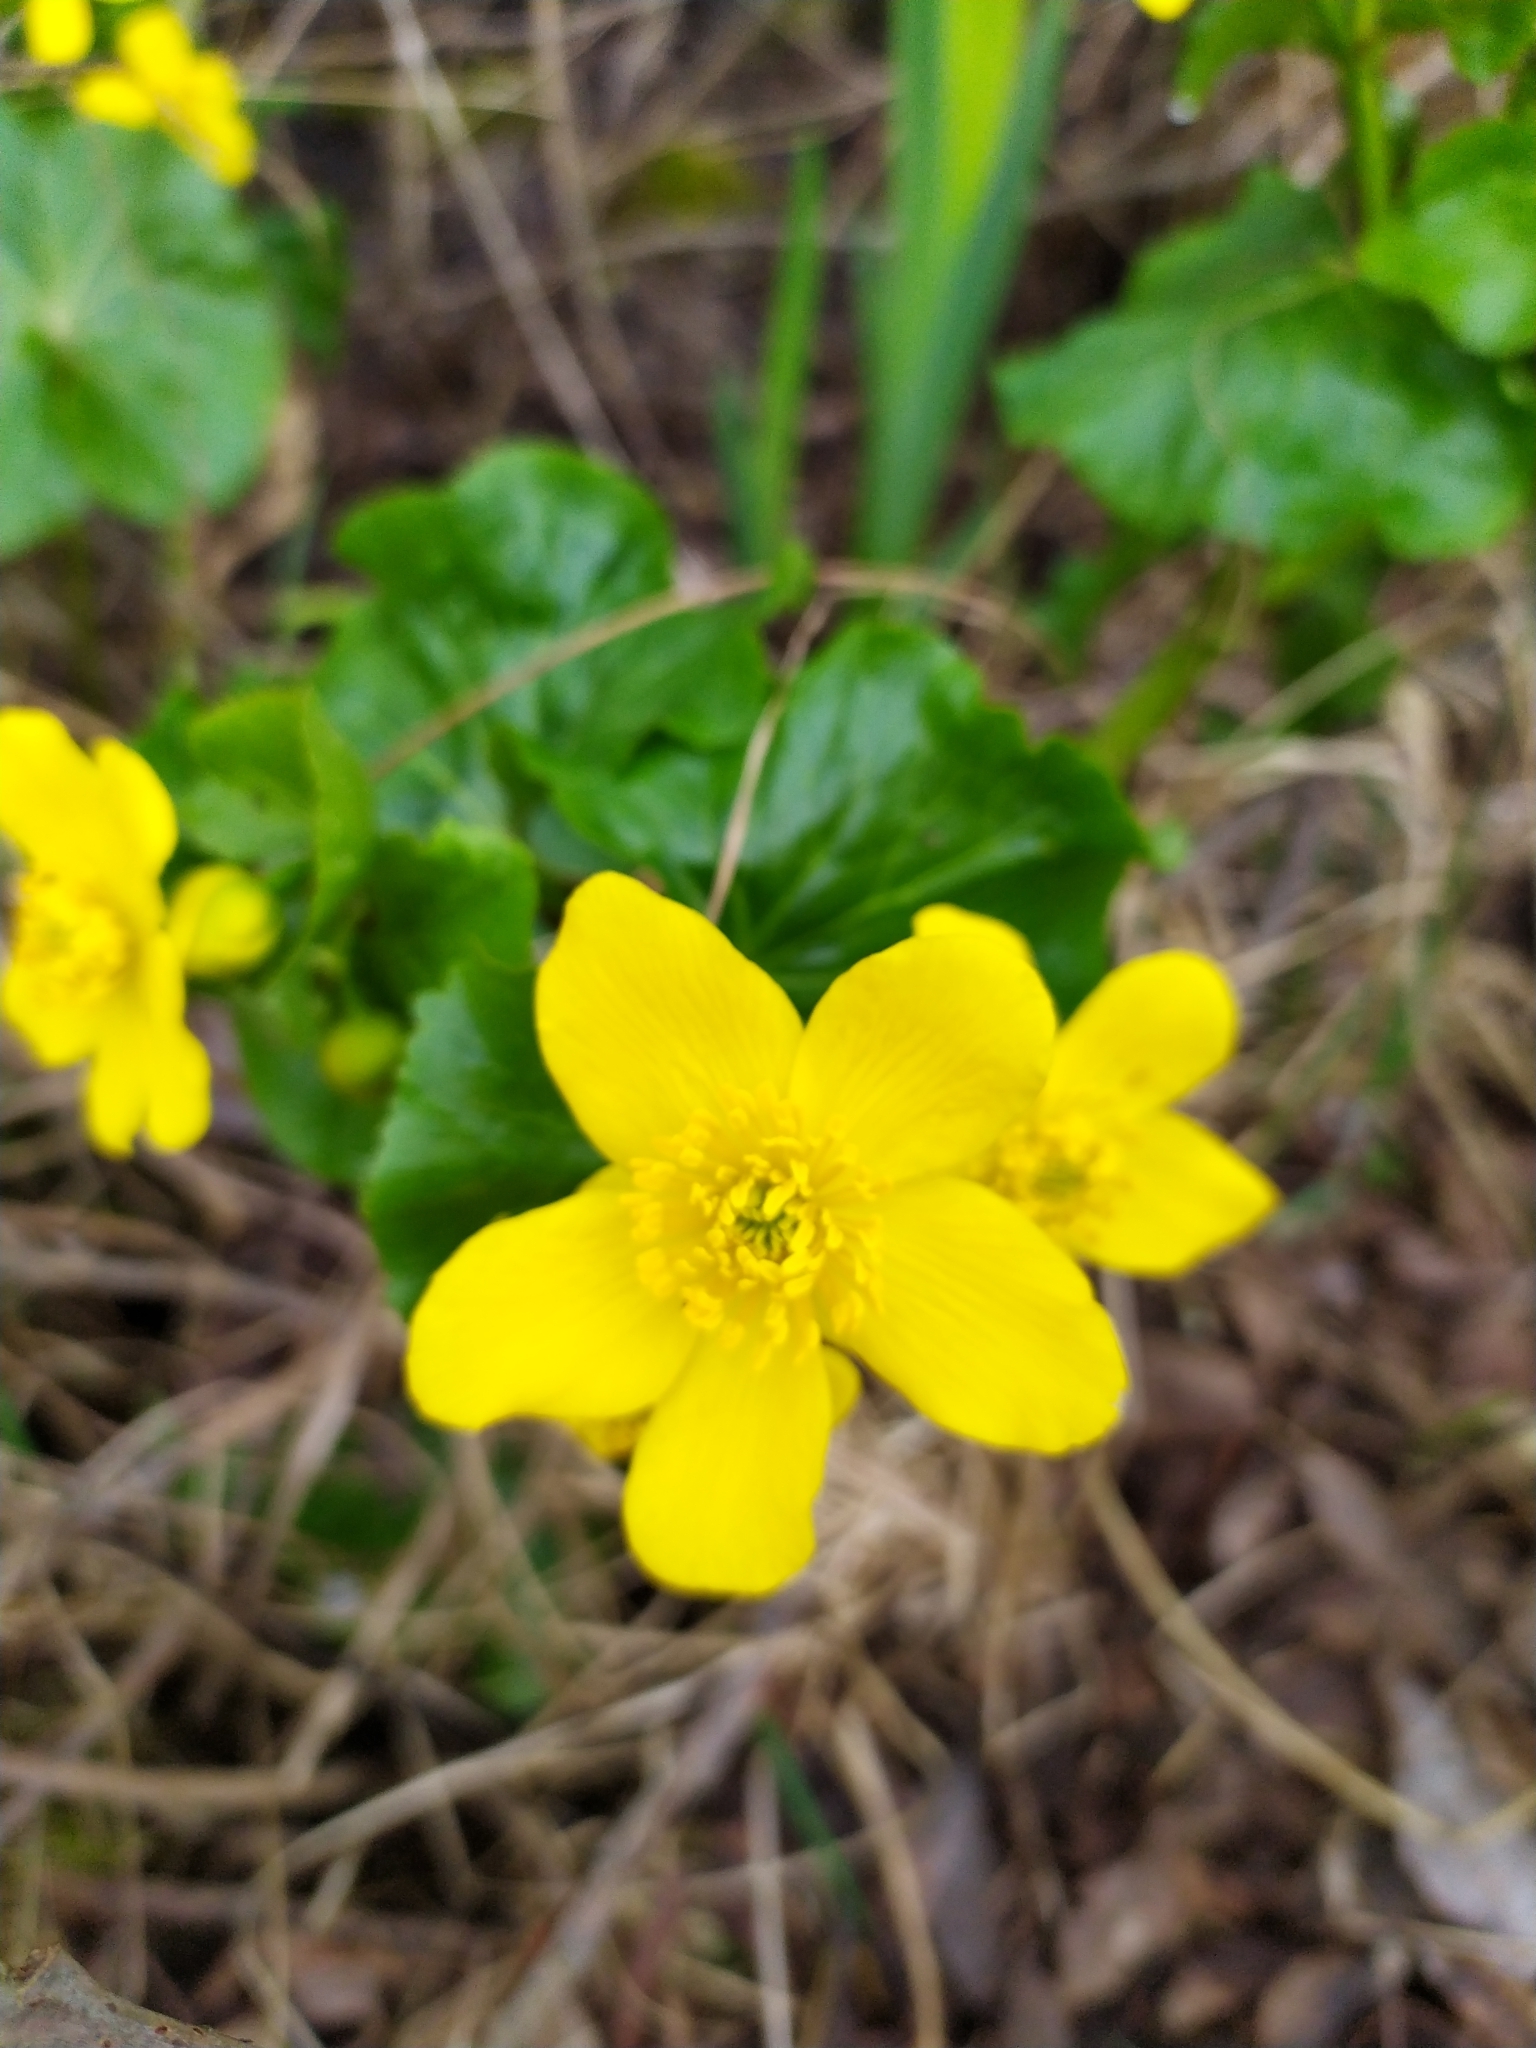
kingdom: Plantae
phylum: Tracheophyta
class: Magnoliopsida
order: Ranunculales
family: Ranunculaceae
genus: Caltha
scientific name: Caltha palustris
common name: Marsh marigold
